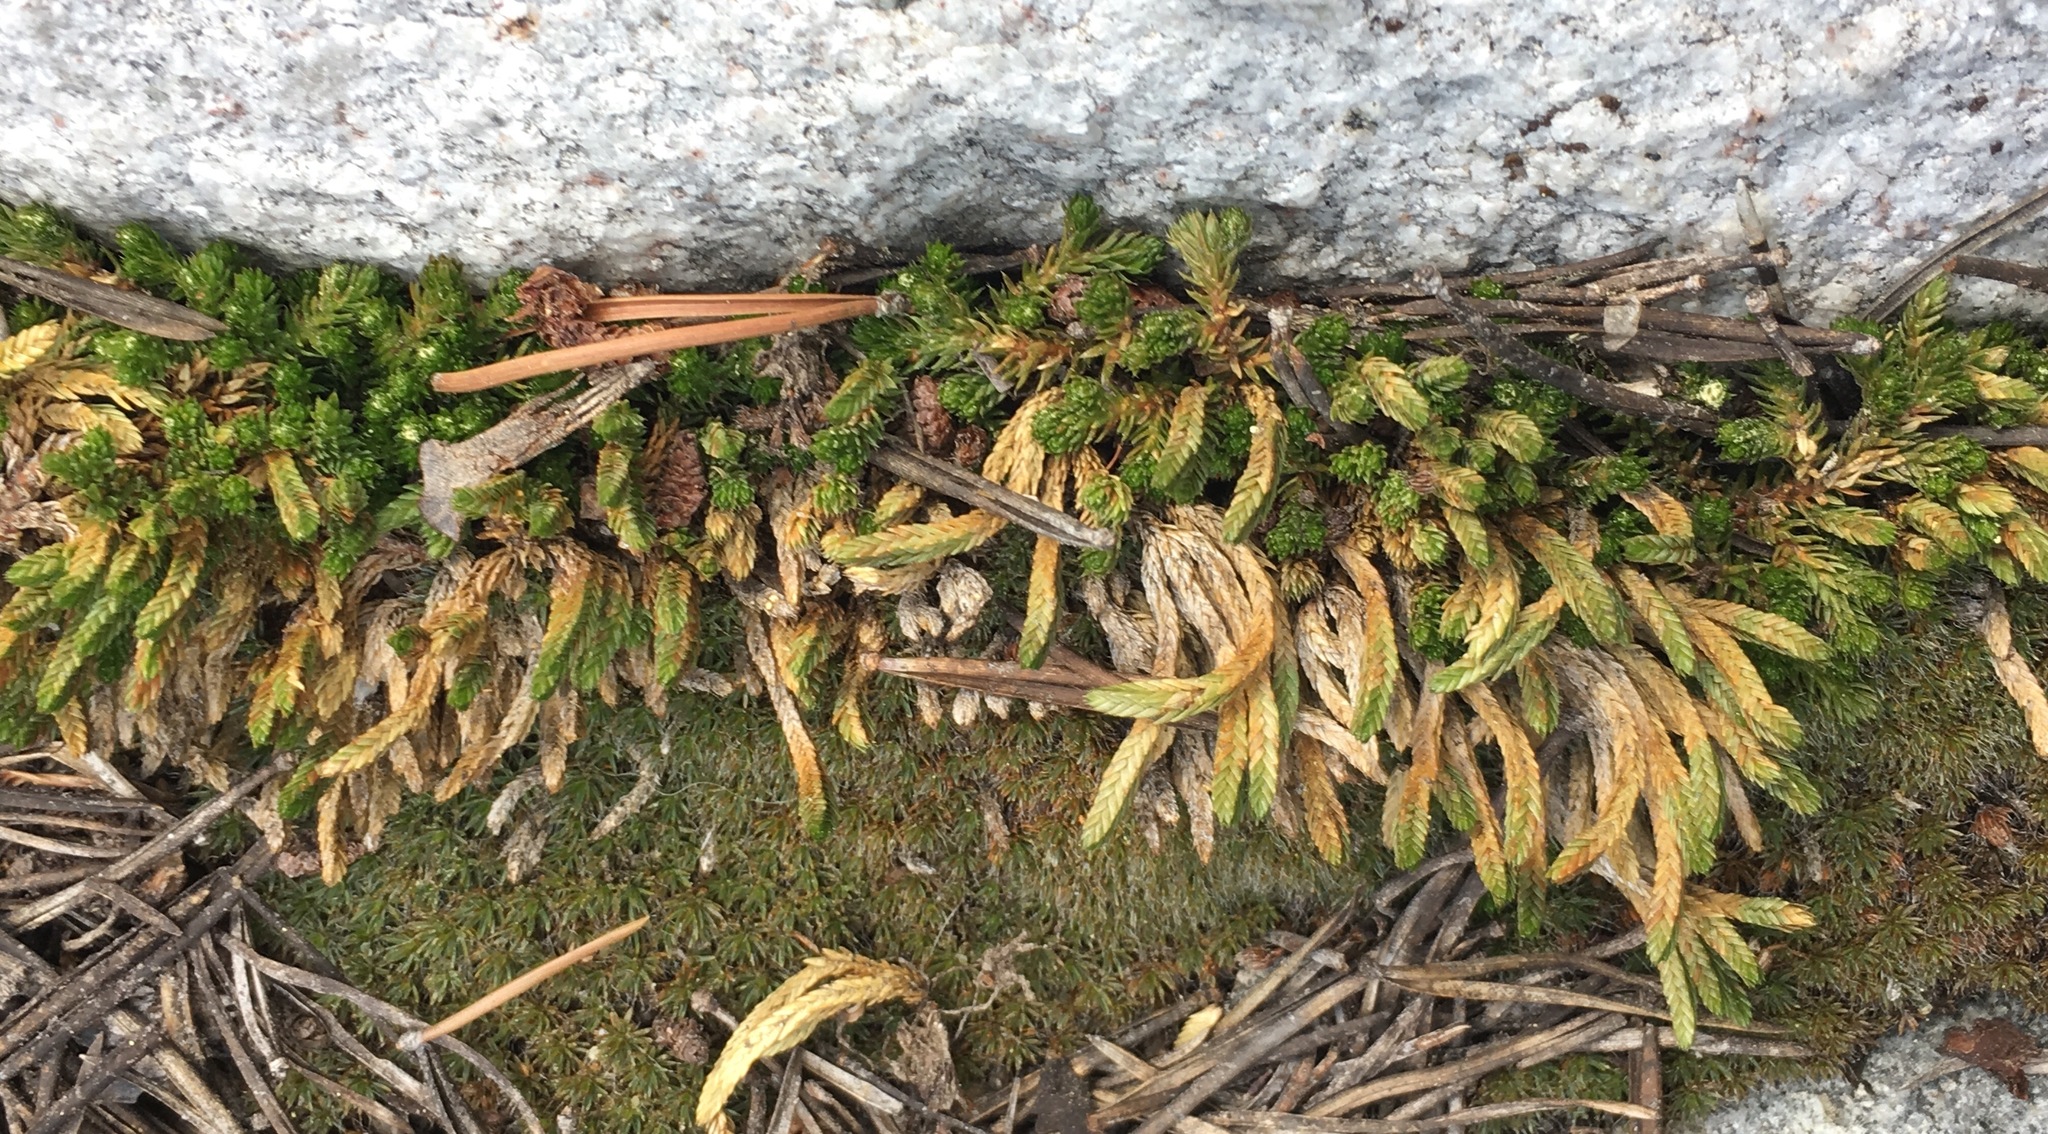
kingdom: Plantae
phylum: Tracheophyta
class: Lycopodiopsida
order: Selaginellales
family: Selaginellaceae
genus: Selaginella
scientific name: Selaginella watsonii
